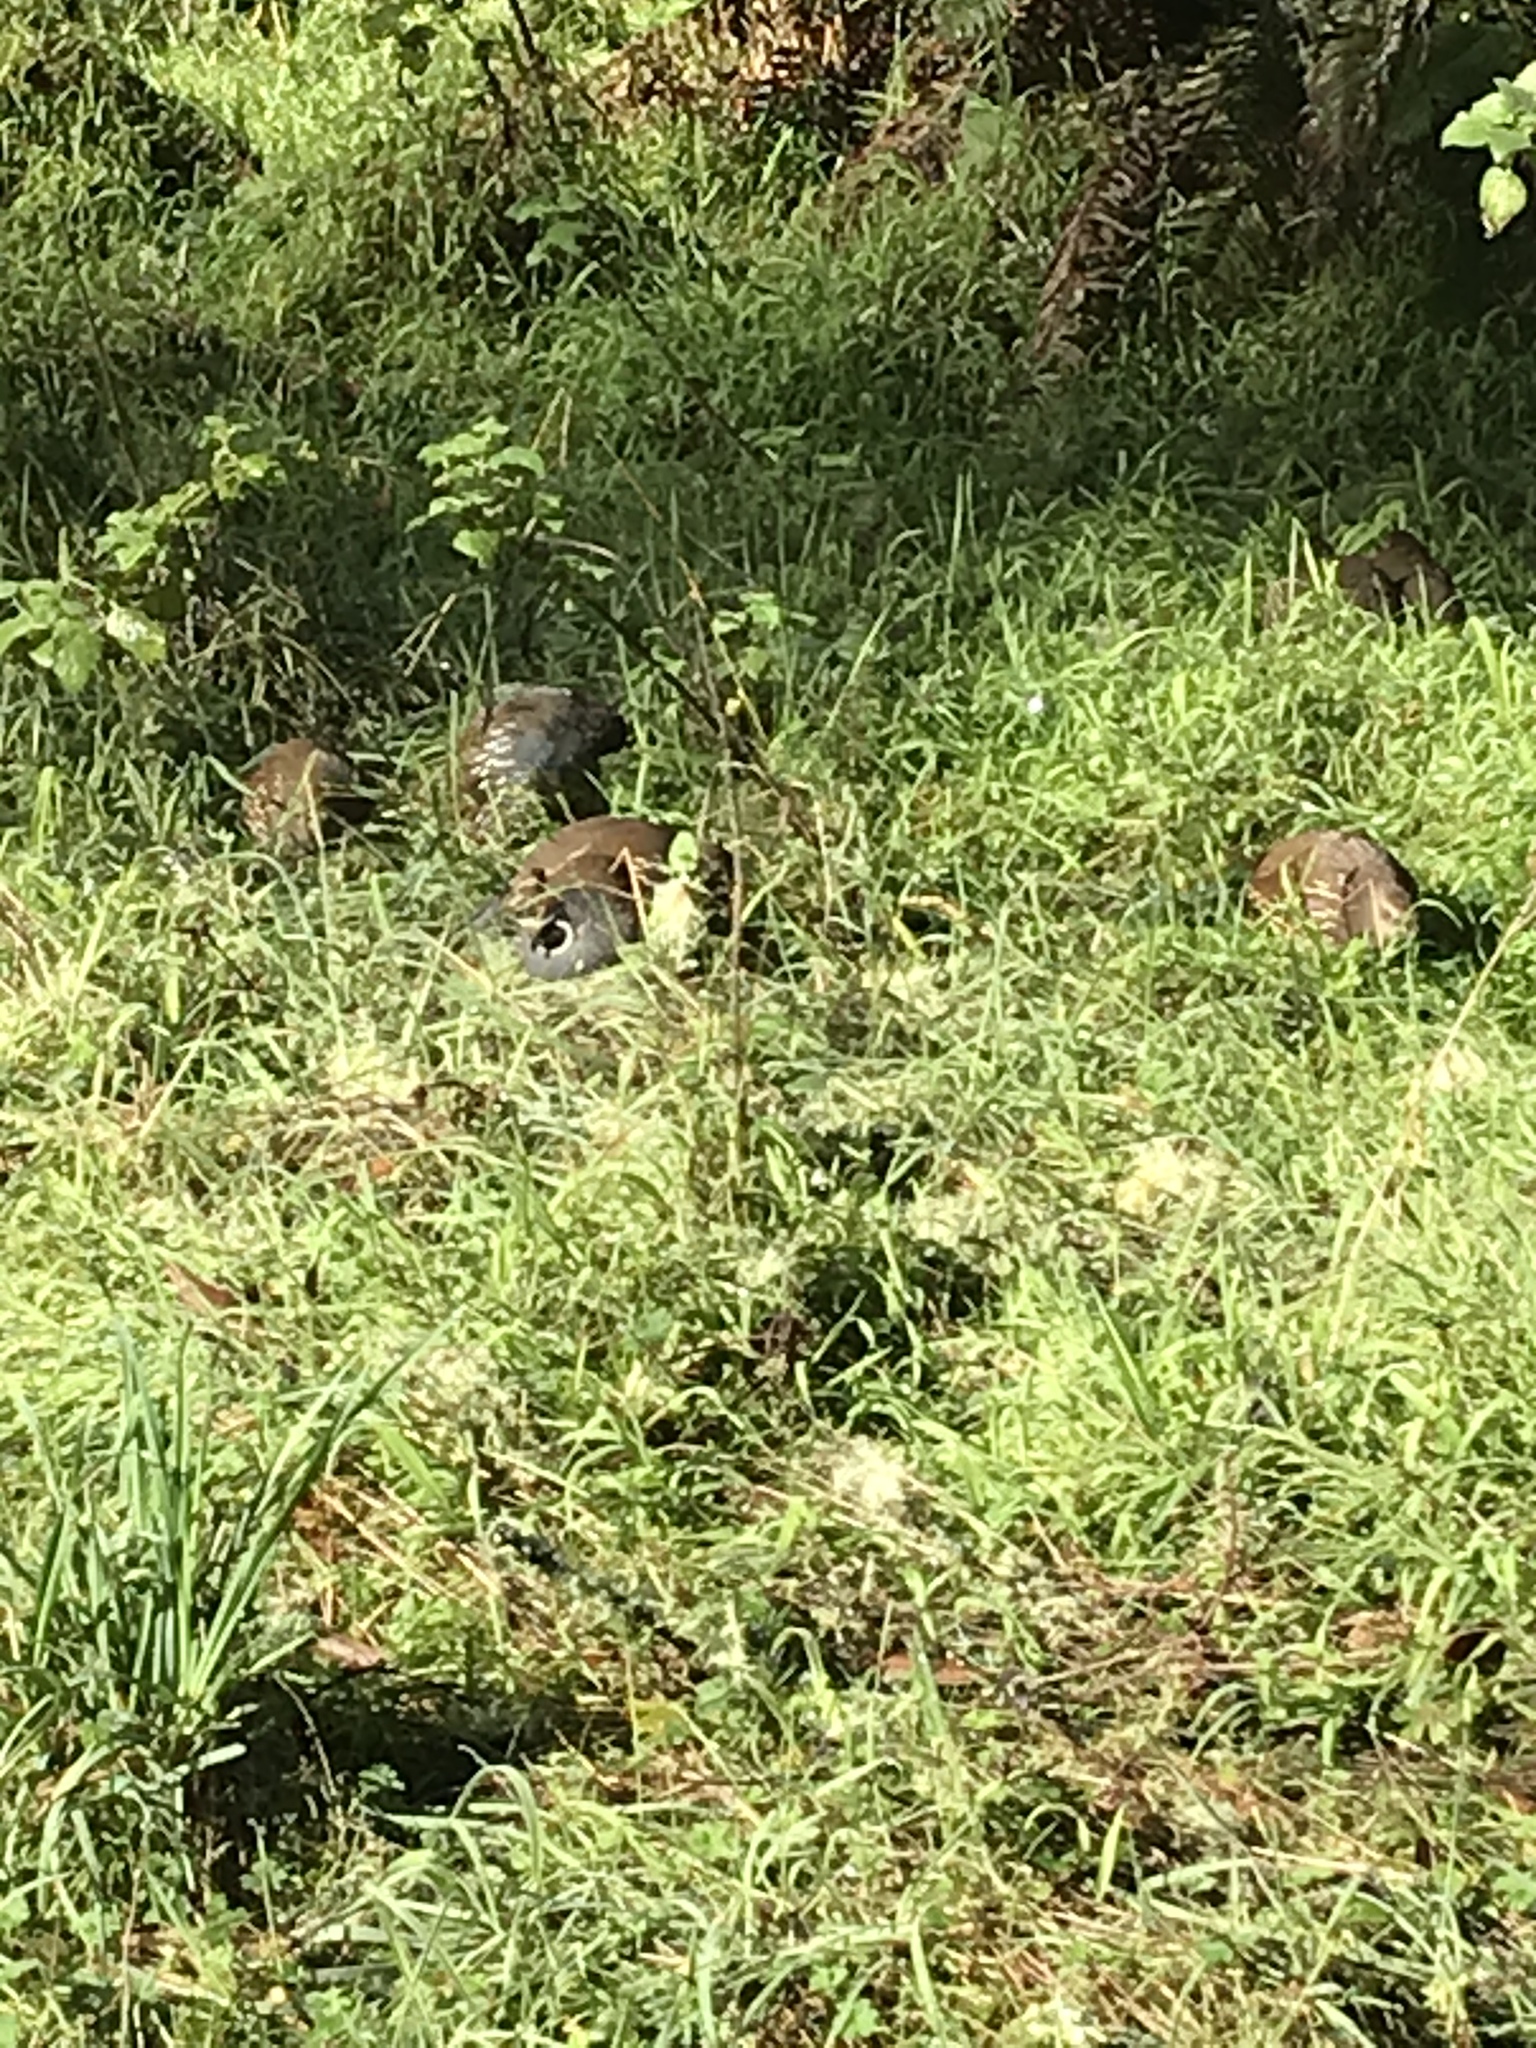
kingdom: Animalia
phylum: Chordata
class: Aves
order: Galliformes
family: Odontophoridae
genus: Callipepla
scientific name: Callipepla californica
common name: California quail
